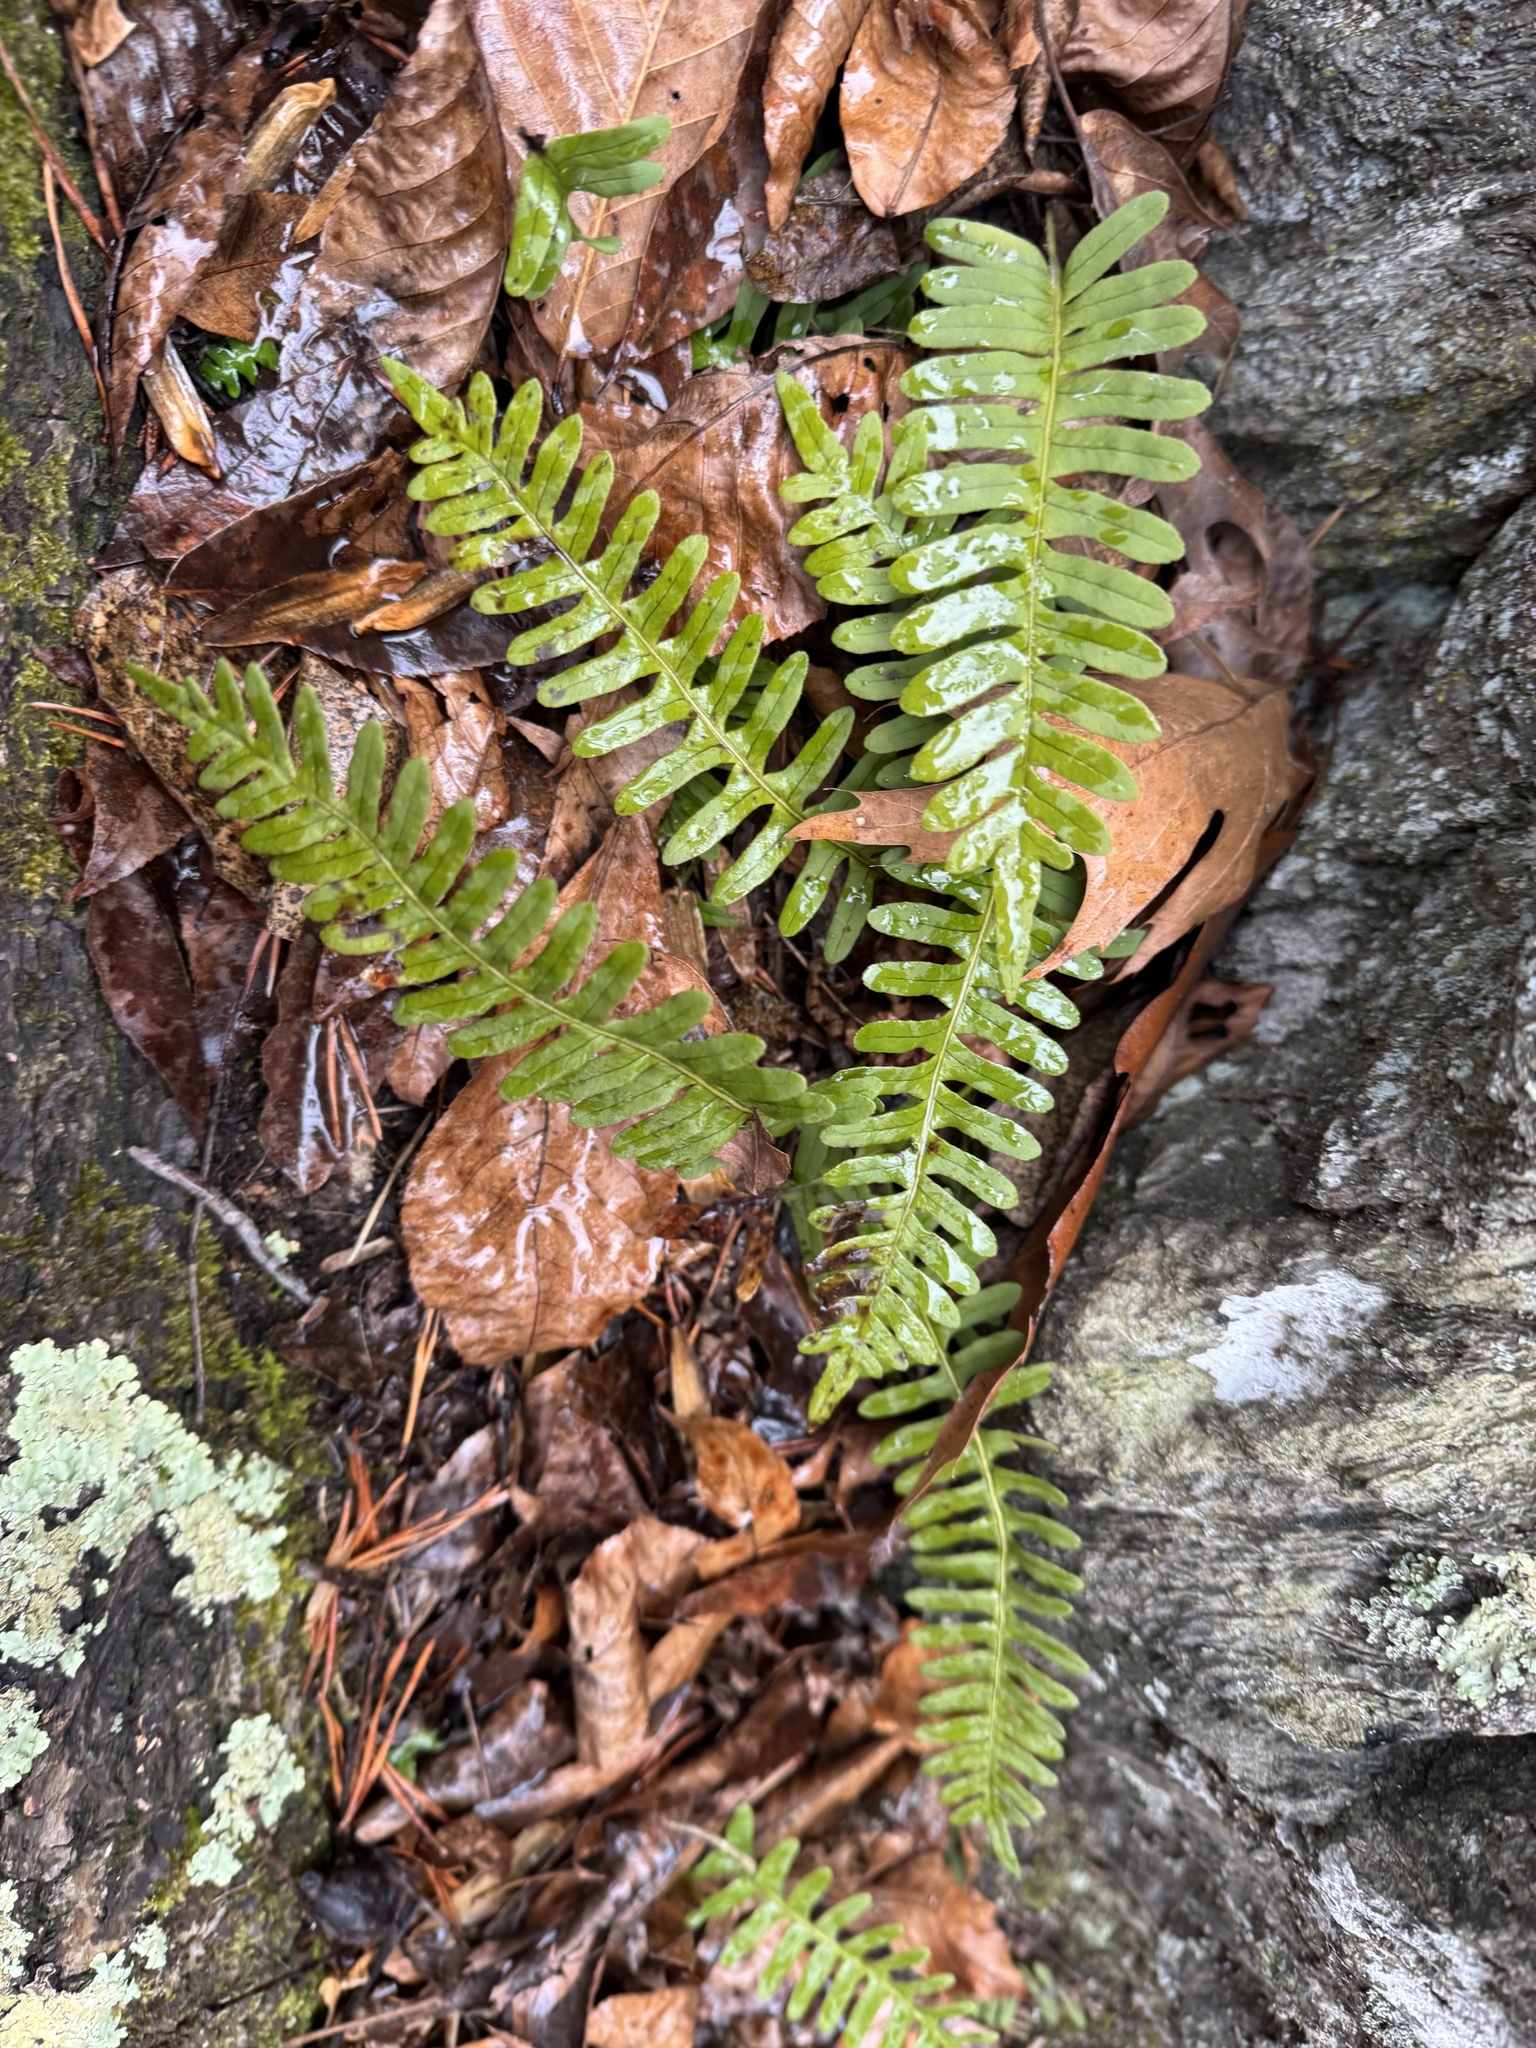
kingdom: Plantae
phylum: Tracheophyta
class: Polypodiopsida
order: Polypodiales
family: Polypodiaceae
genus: Polypodium
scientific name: Polypodium virginianum
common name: American wall fern
